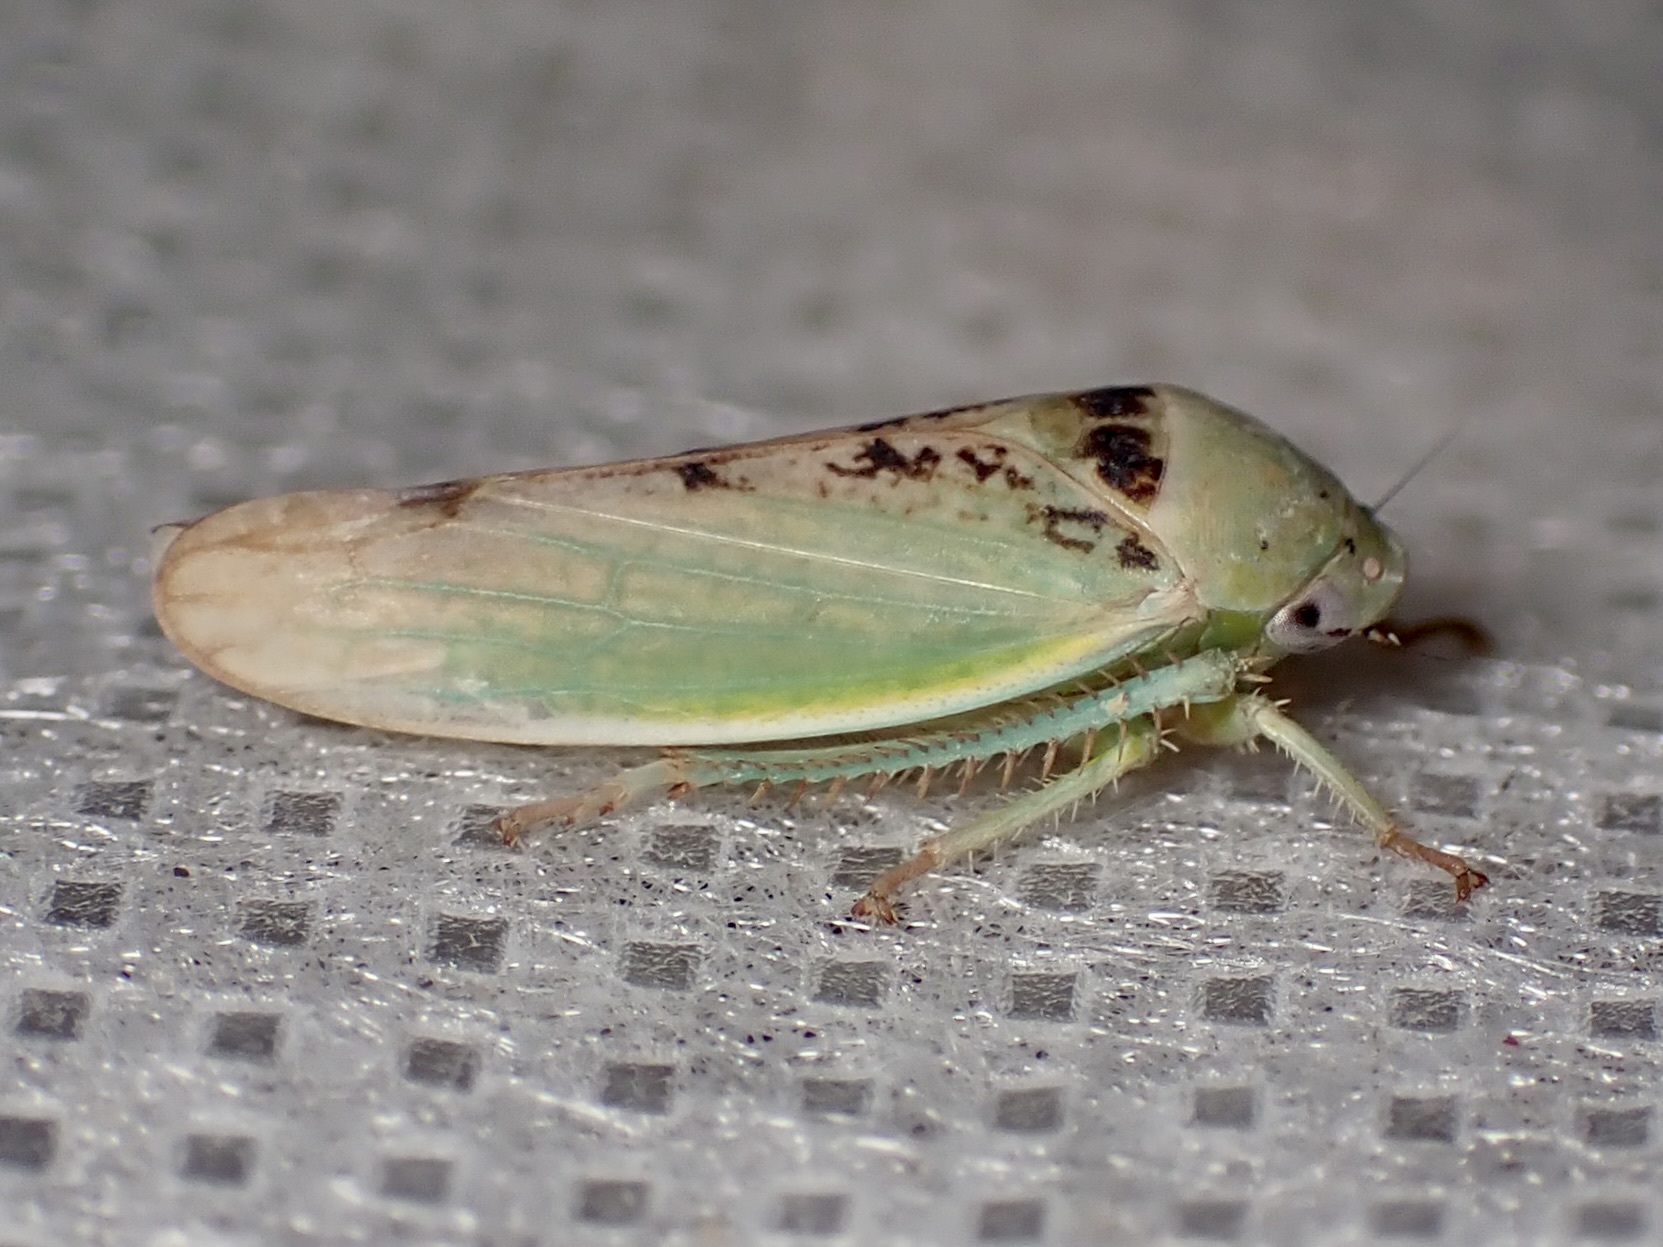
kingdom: Animalia
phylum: Arthropoda
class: Insecta
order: Hemiptera
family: Cicadellidae
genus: Hamana
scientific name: Hamana dictitoria
